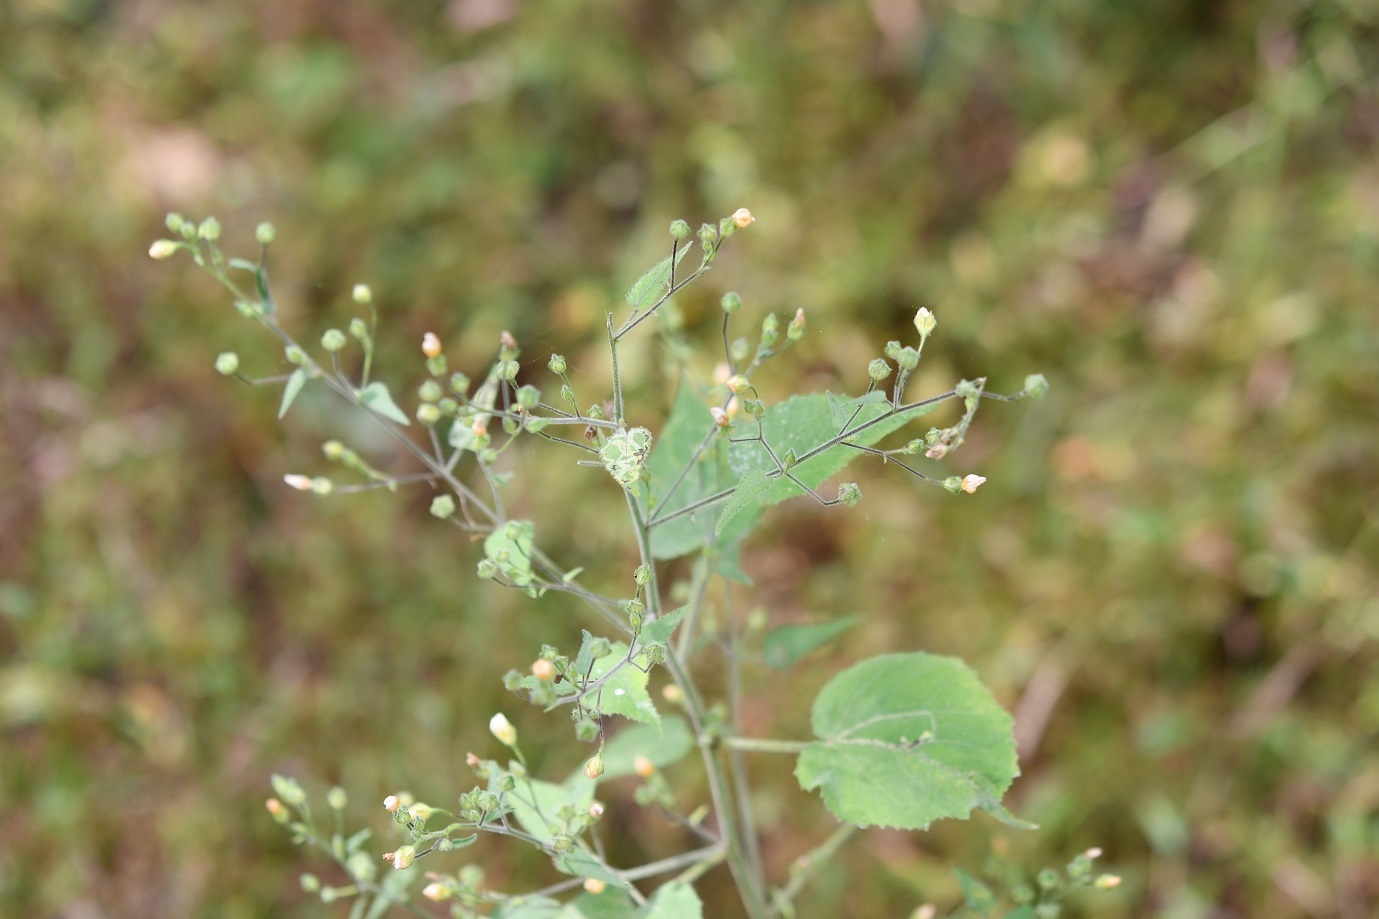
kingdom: Plantae
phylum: Tracheophyta
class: Magnoliopsida
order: Malvales
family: Malvaceae
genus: Bastardiastrum
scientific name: Bastardiastrum gracile
